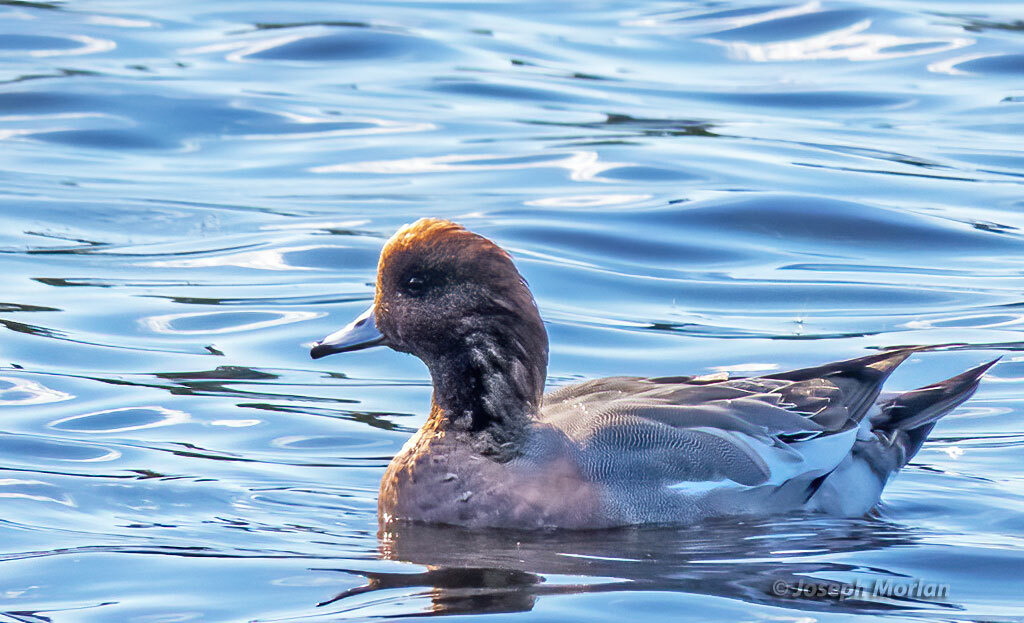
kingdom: Animalia
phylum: Chordata
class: Aves
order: Anseriformes
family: Anatidae
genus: Mareca
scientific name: Mareca penelope
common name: Eurasian wigeon
